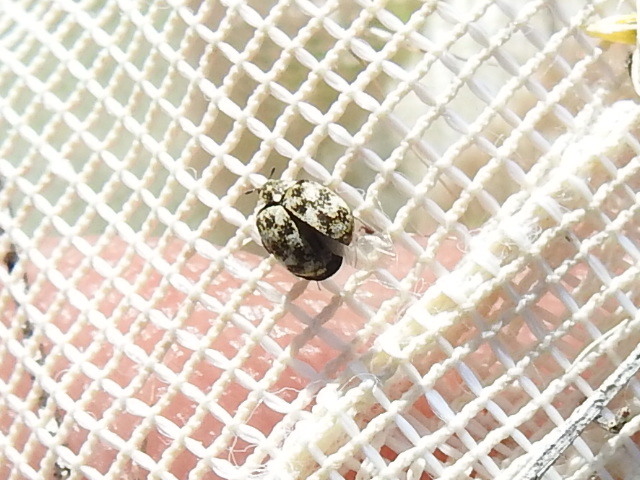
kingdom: Animalia
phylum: Arthropoda
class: Insecta
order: Coleoptera
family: Dermestidae
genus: Anthrenus
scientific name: Anthrenus verbasci
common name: Varied carpet beetle
